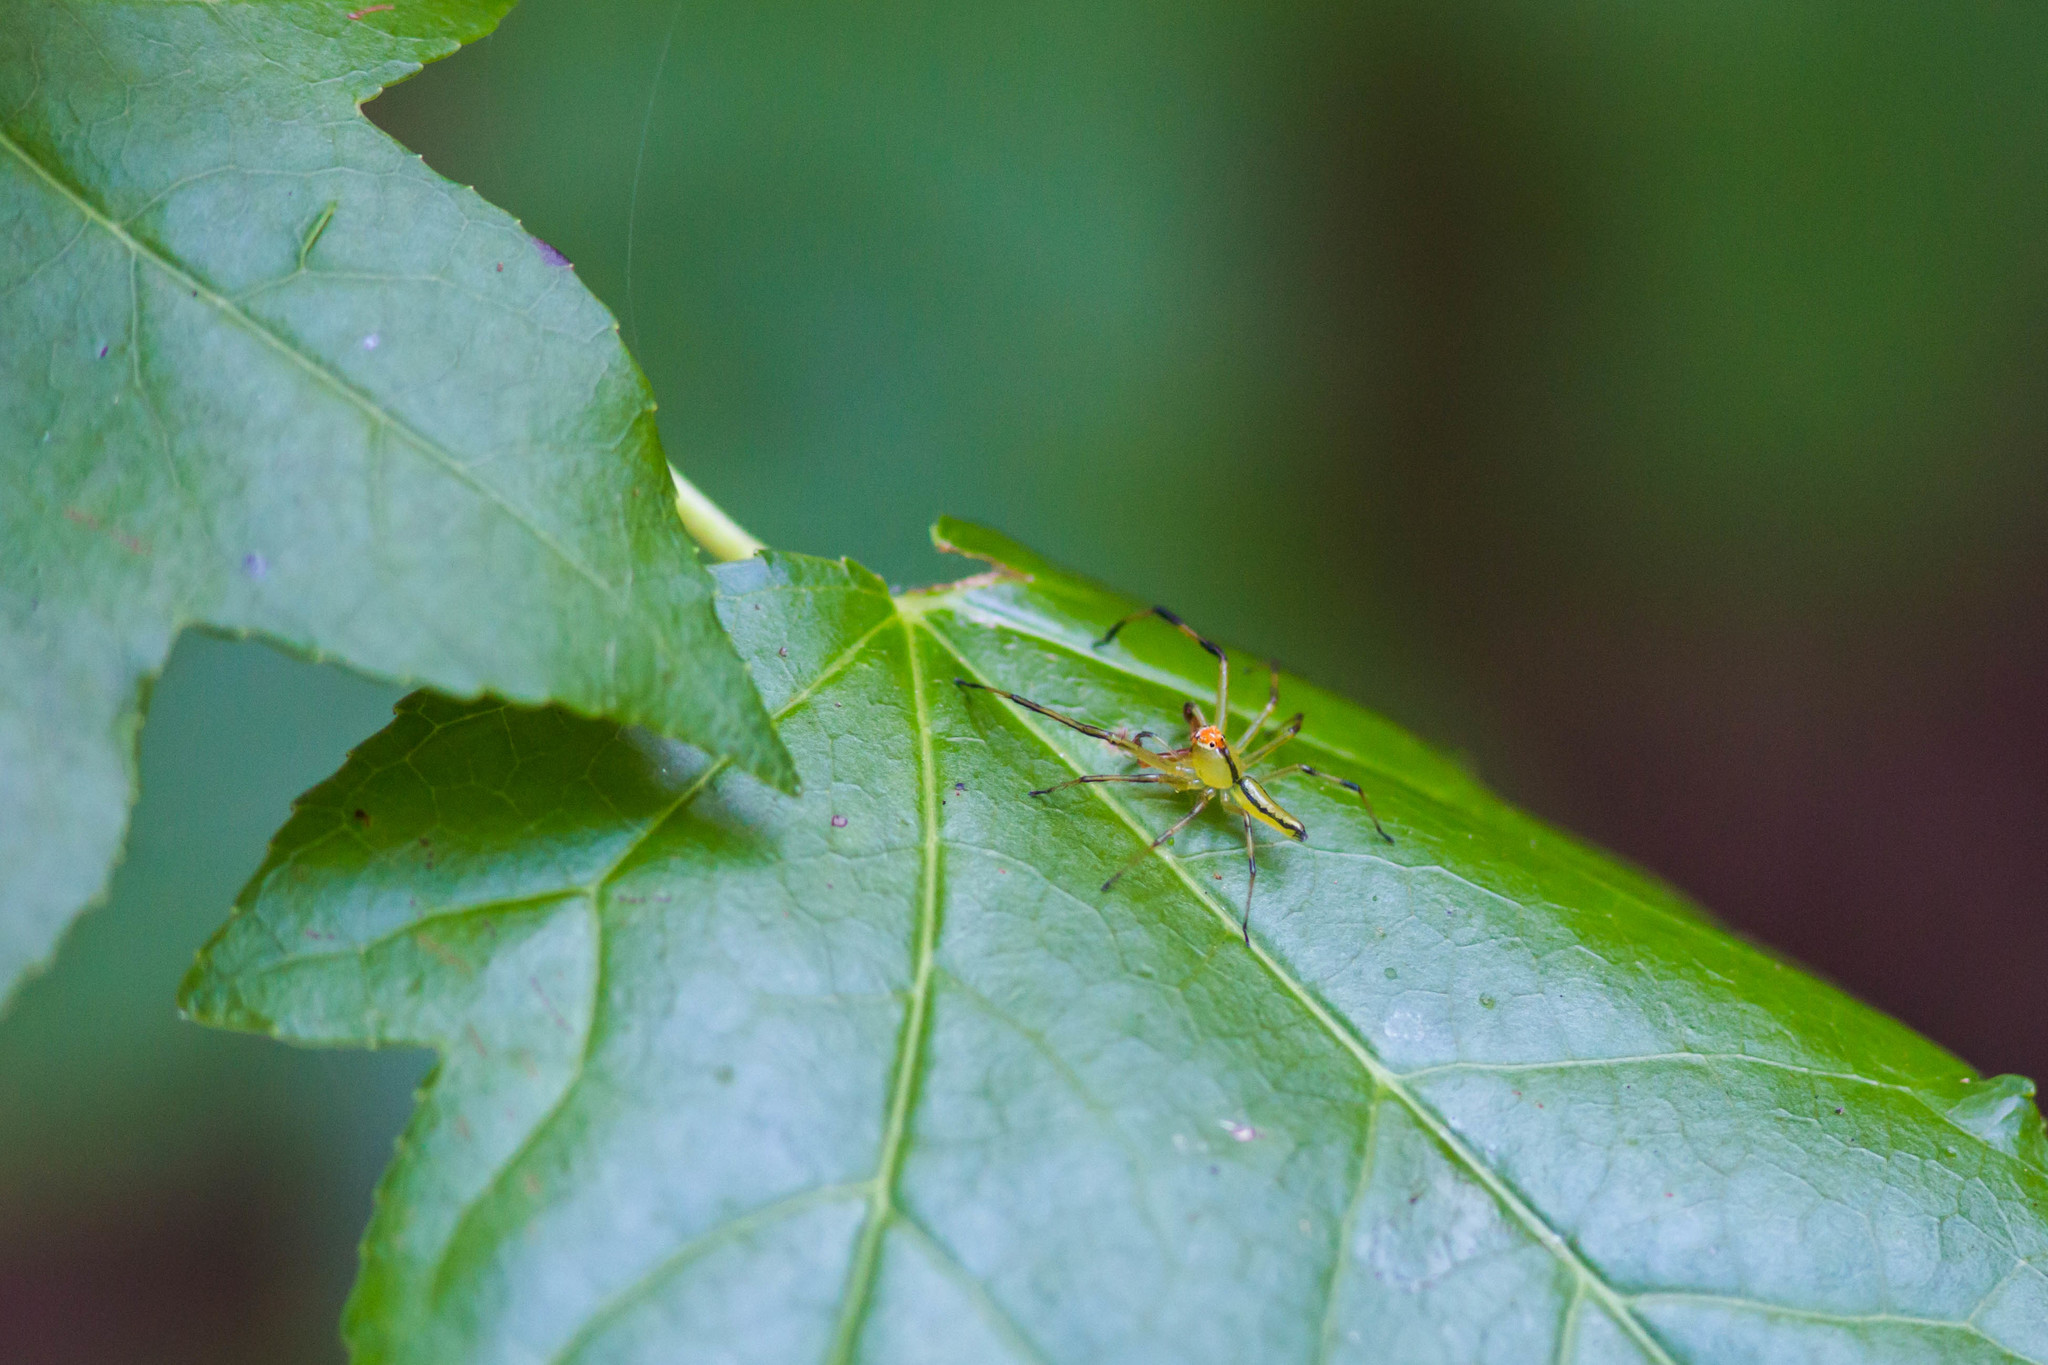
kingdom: Animalia
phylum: Arthropoda
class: Arachnida
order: Araneae
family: Salticidae
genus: Lyssomanes
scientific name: Lyssomanes viridis
